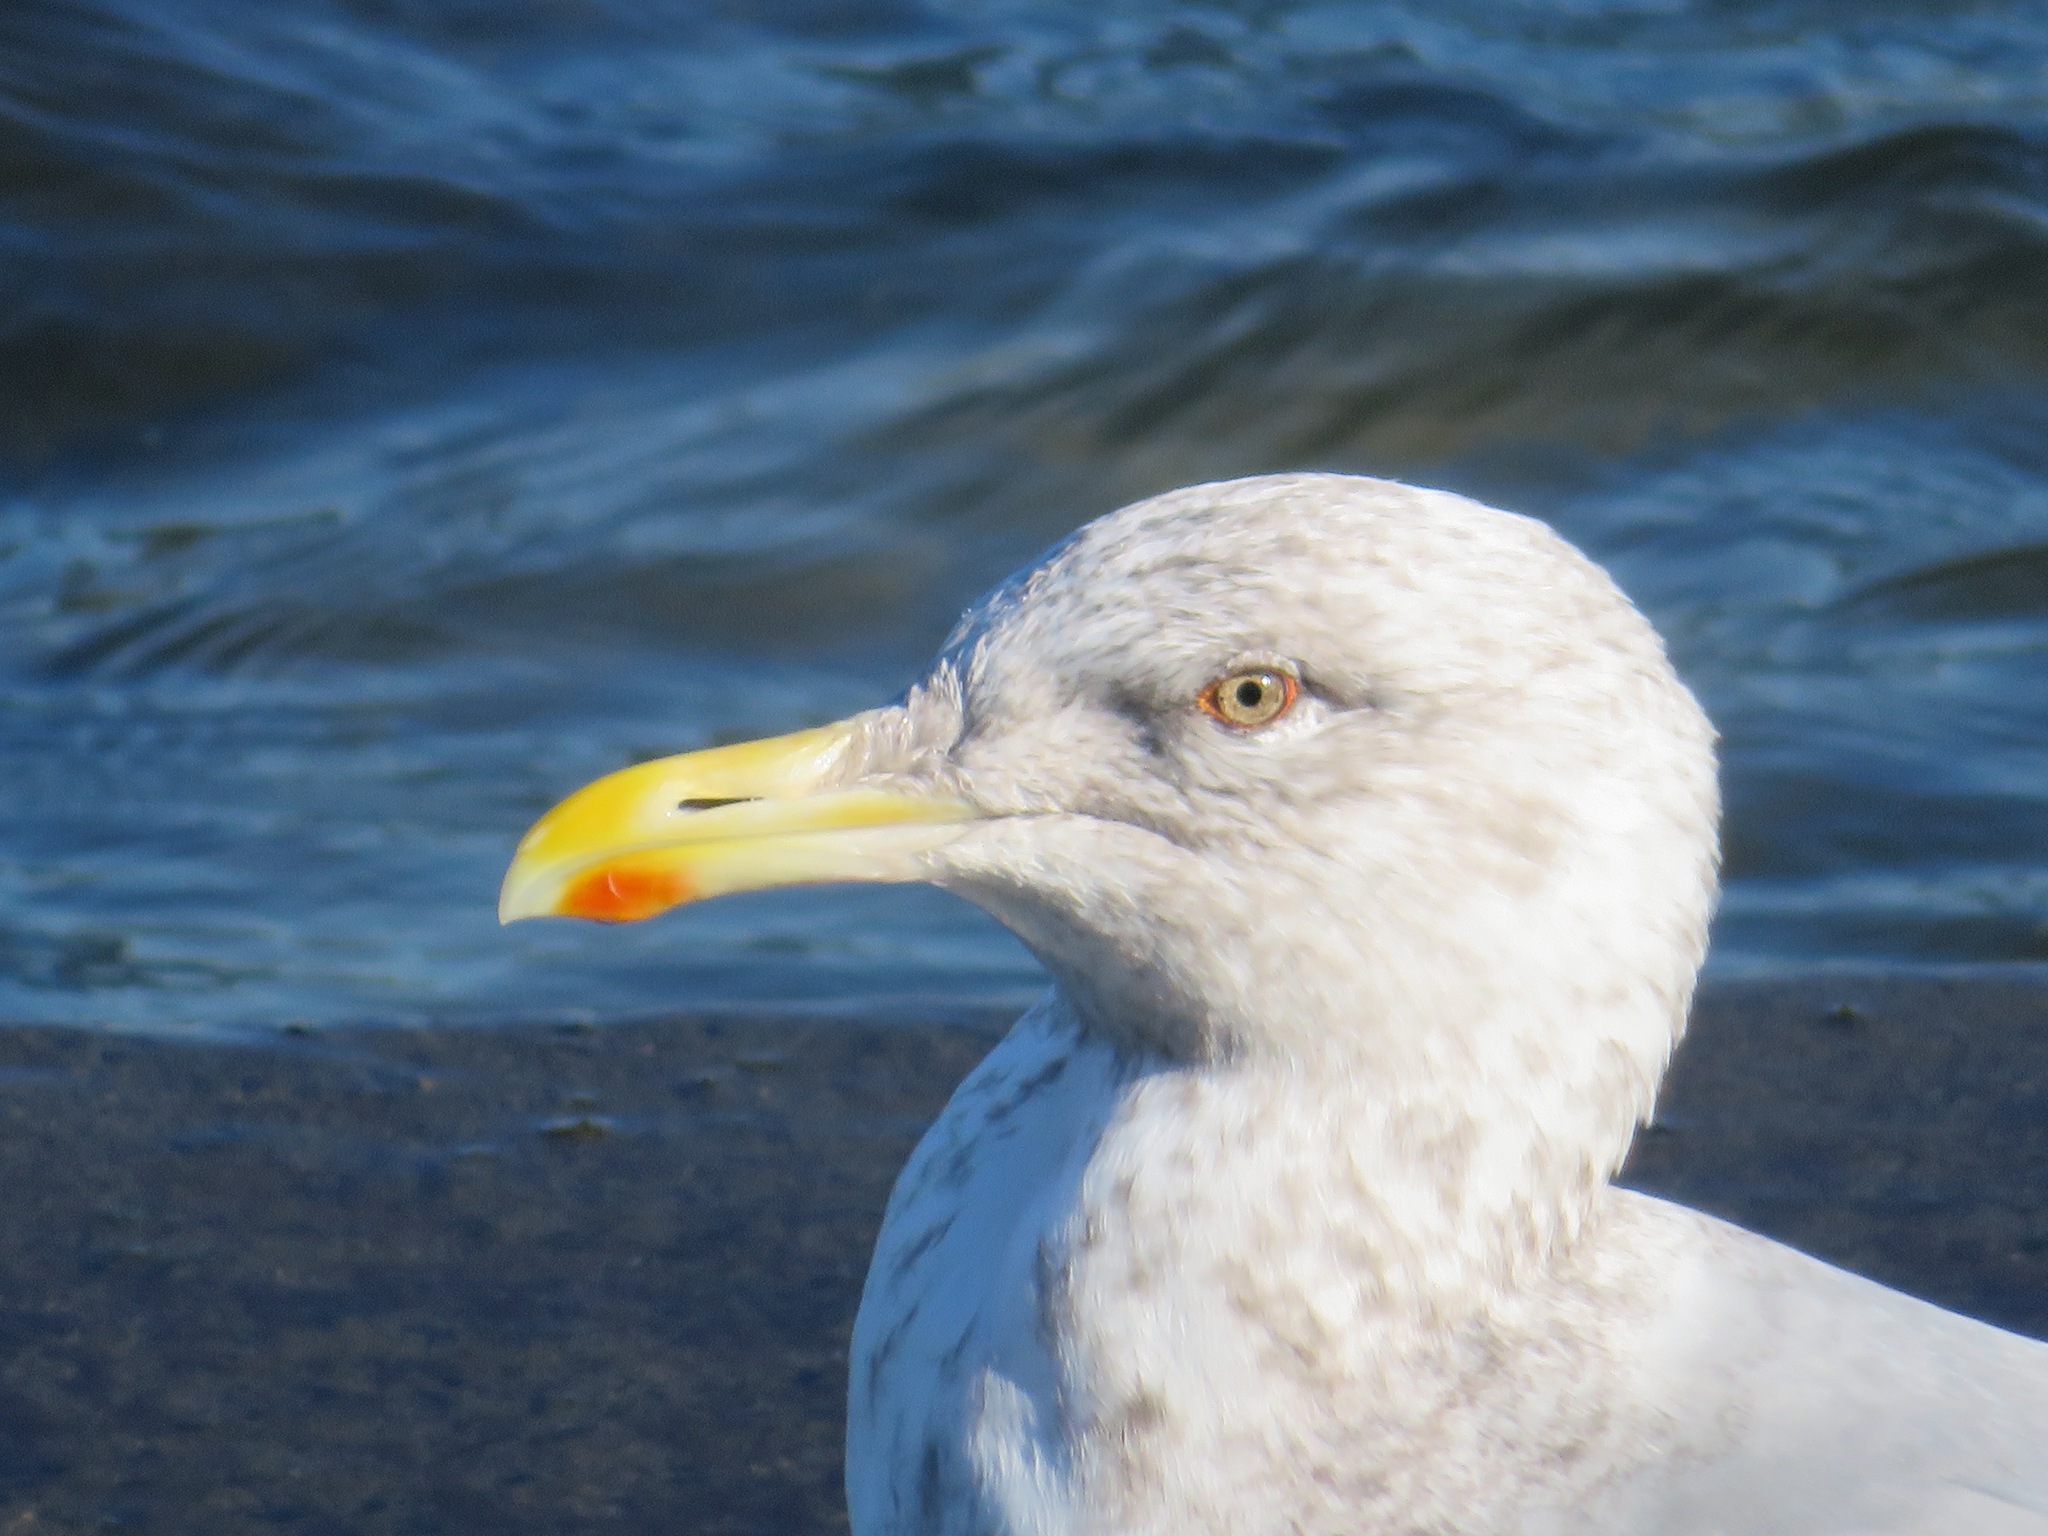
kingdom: Animalia
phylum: Chordata
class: Aves
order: Charadriiformes
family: Laridae
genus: Larus
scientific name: Larus vegae
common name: Vega gull
